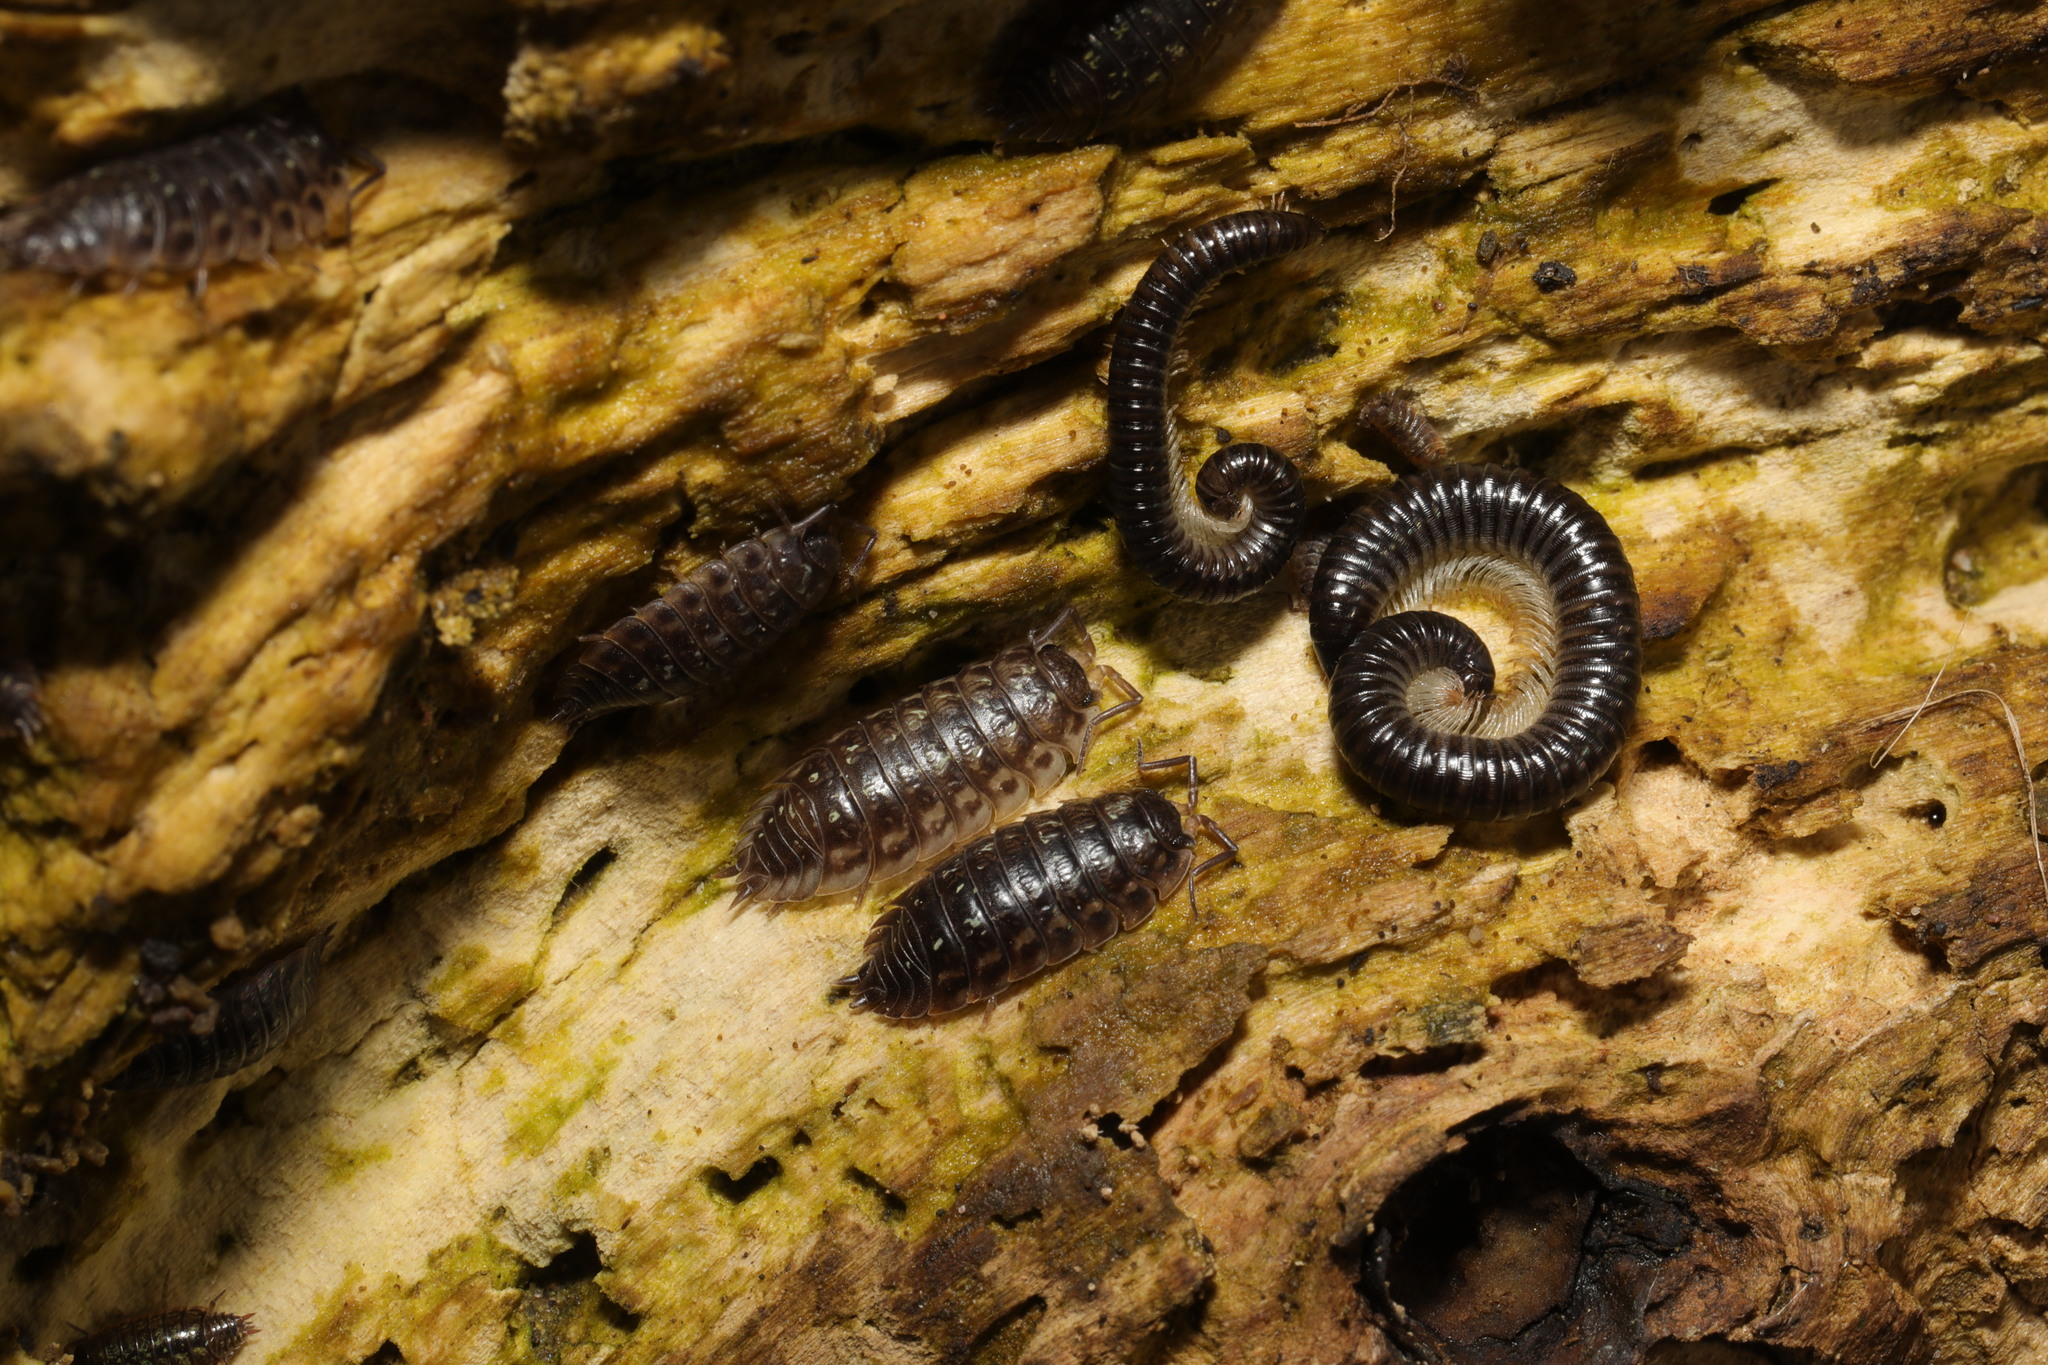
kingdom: Animalia
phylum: Arthropoda
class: Diplopoda
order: Julida
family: Julidae
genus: Tachypodoiulus
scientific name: Tachypodoiulus niger
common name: White-legged snake millipede
